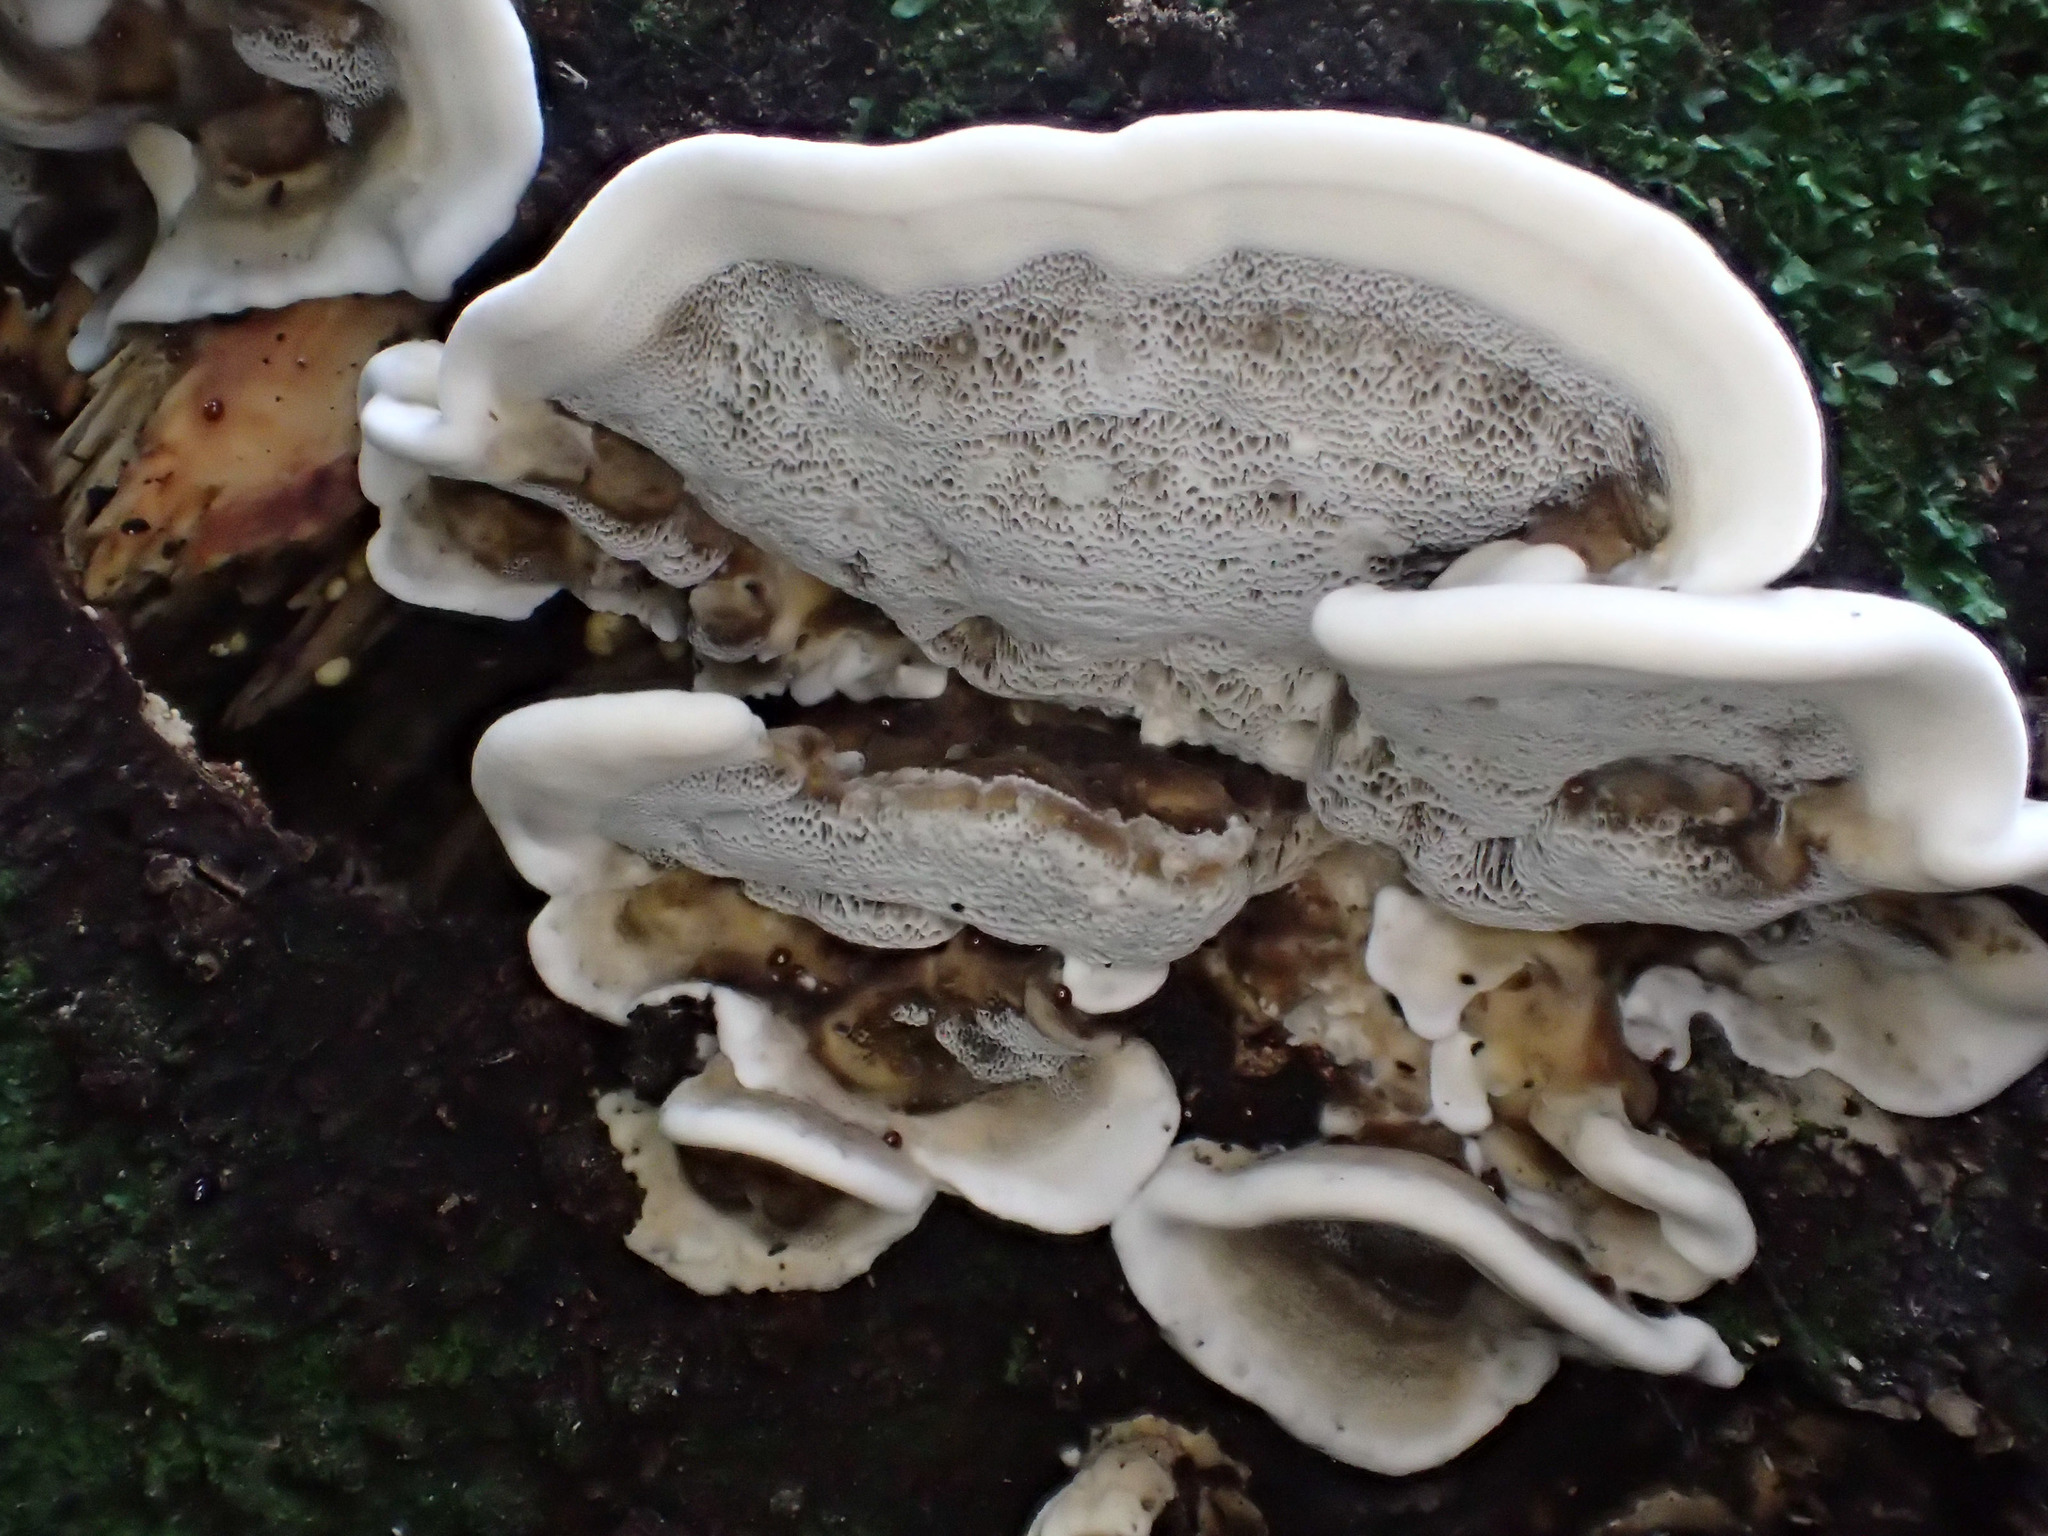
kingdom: Fungi
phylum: Basidiomycota
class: Agaricomycetes
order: Polyporales
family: Phanerochaetaceae
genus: Bjerkandera
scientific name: Bjerkandera adusta
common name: Smoky bracket
